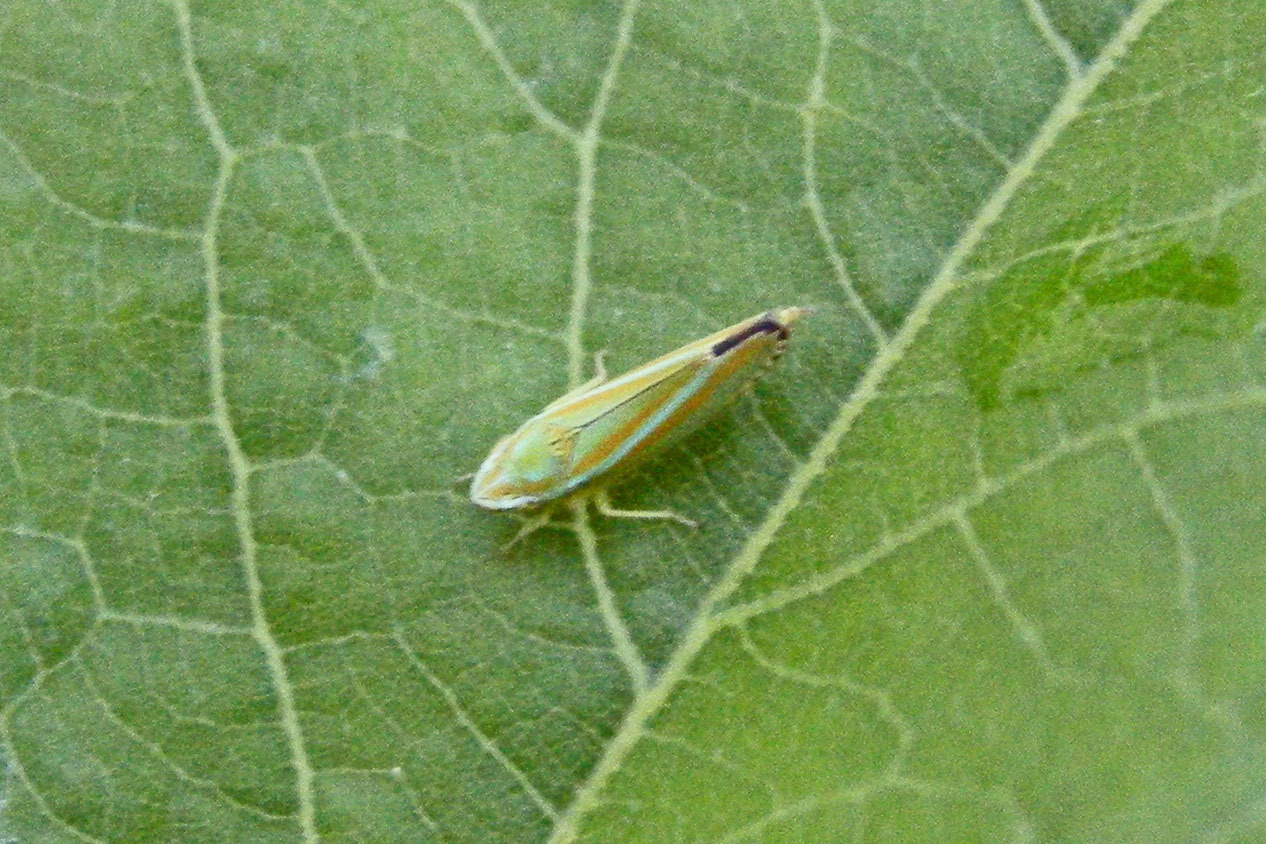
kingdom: Animalia
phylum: Arthropoda
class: Insecta
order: Hemiptera
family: Cicadellidae
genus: Graphocephala
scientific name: Graphocephala versuta
